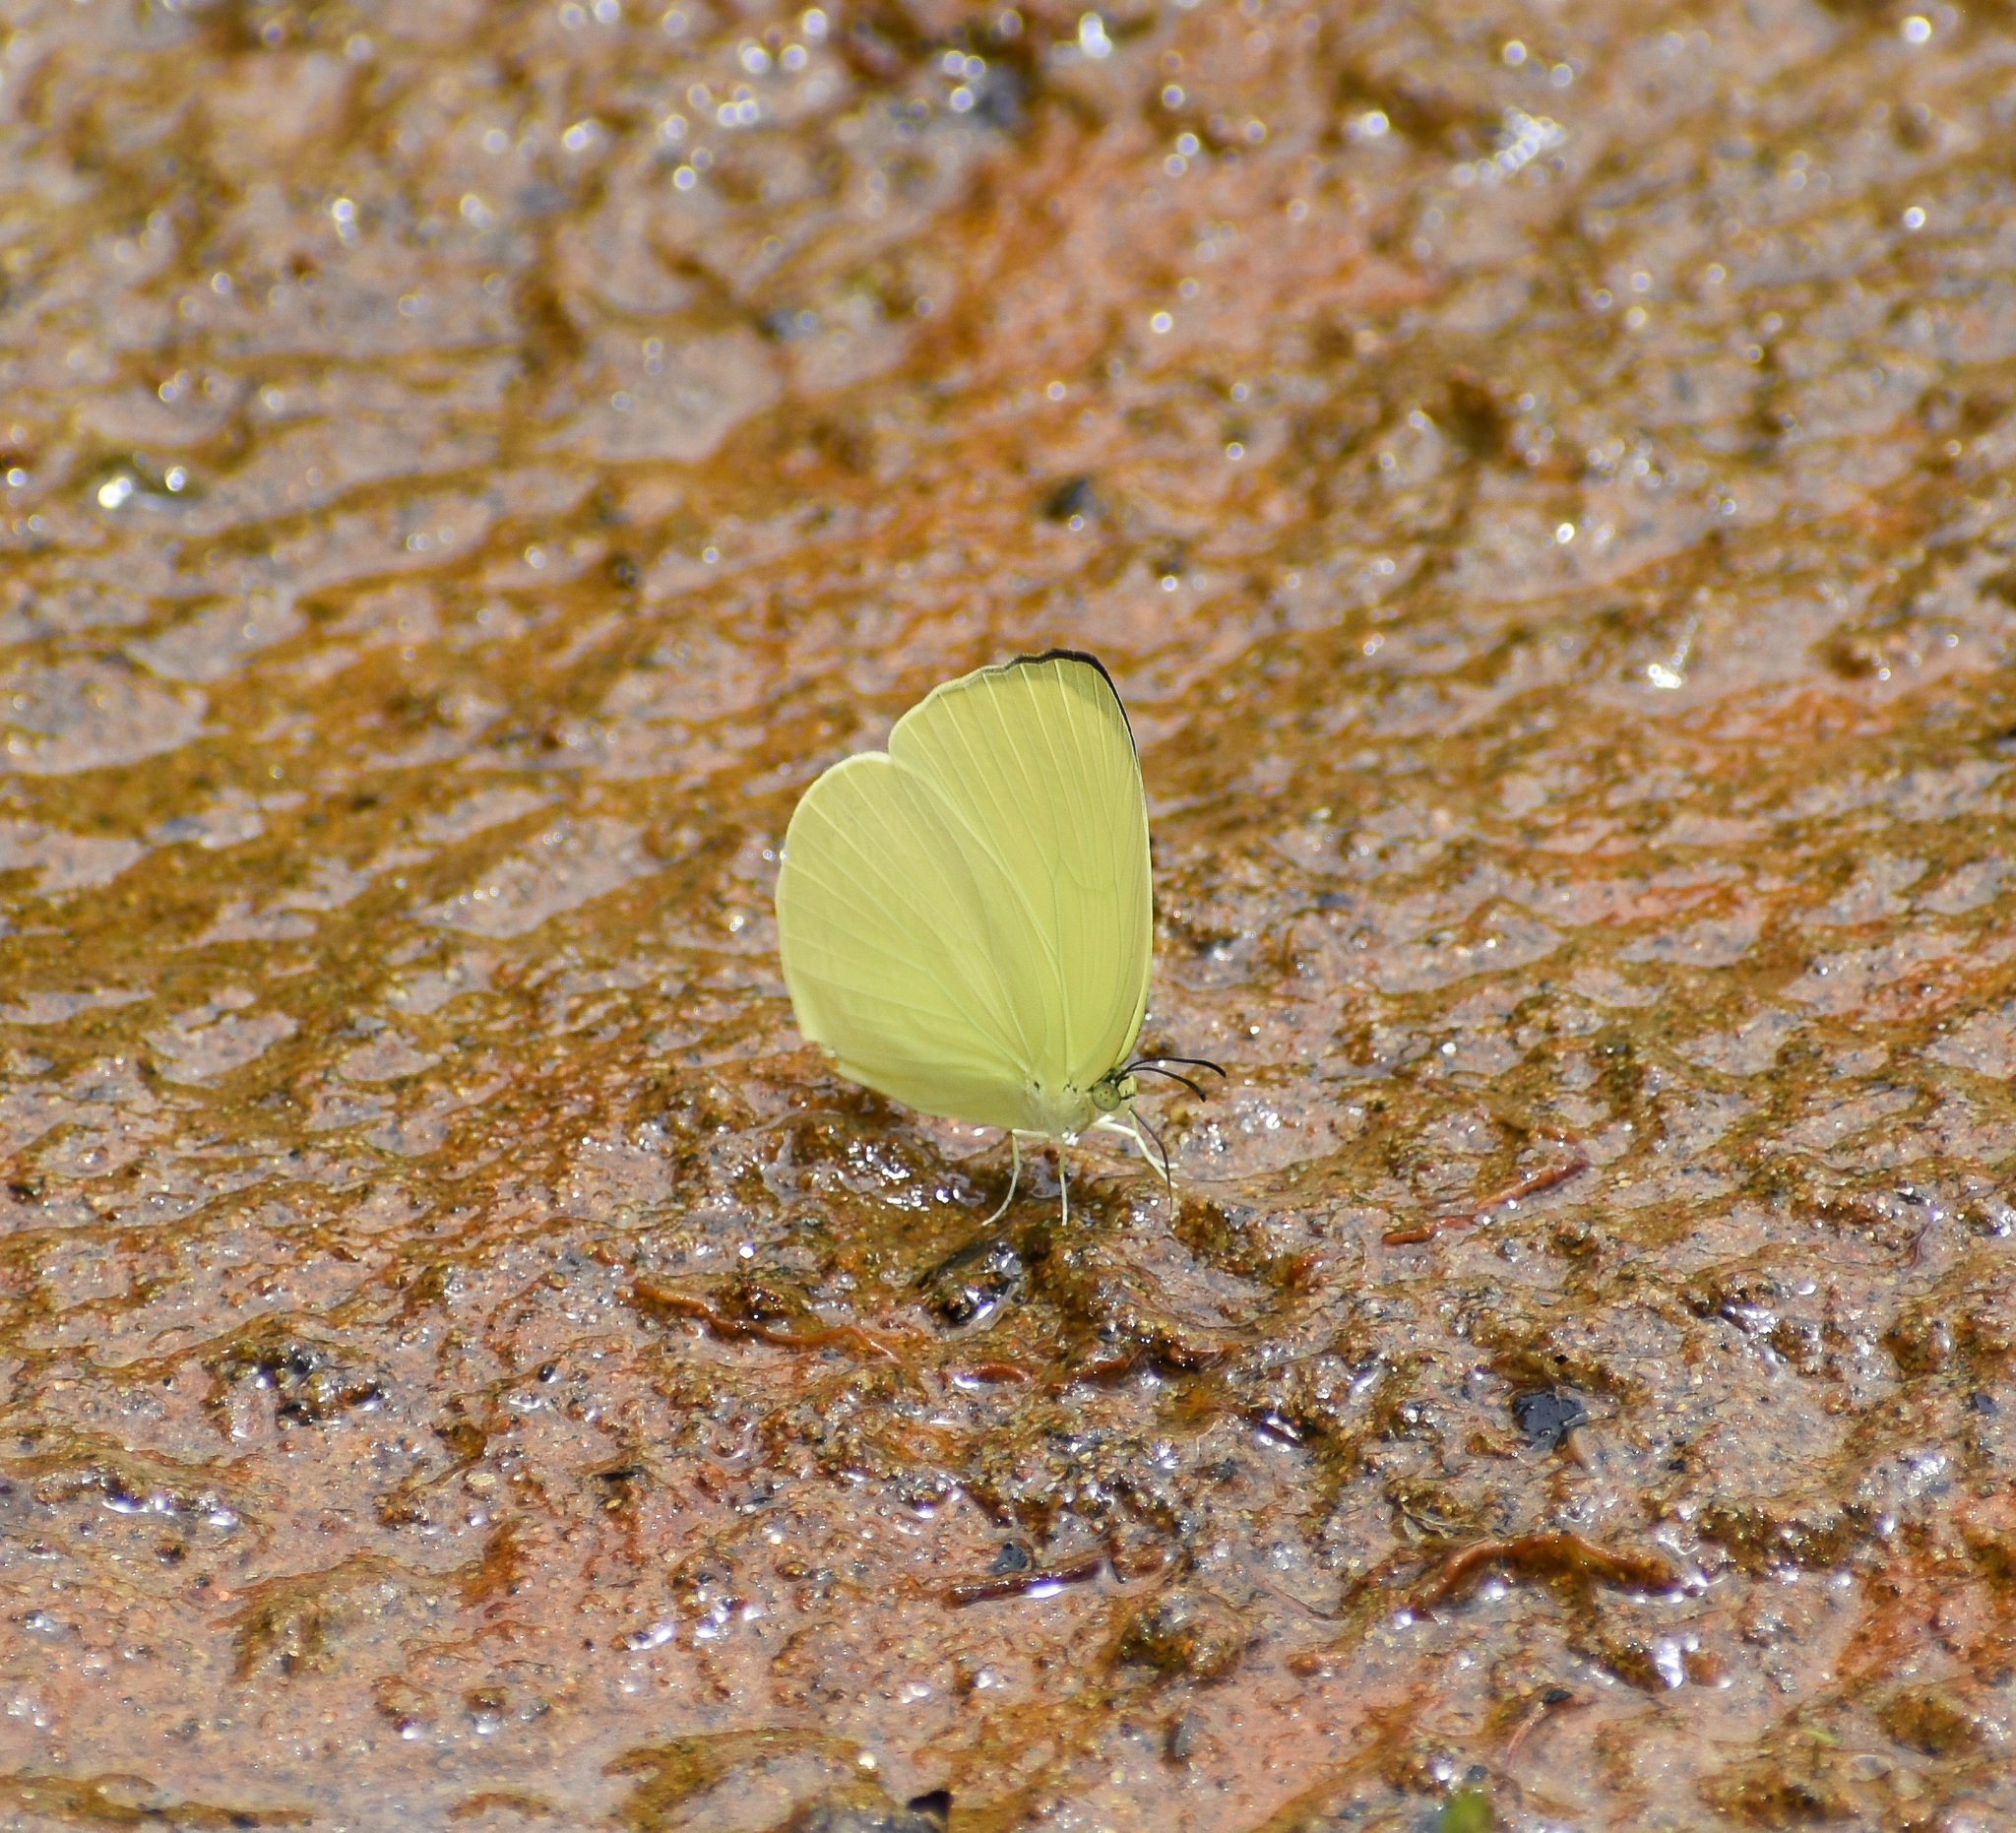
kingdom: Animalia
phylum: Arthropoda
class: Insecta
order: Lepidoptera
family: Pieridae
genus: Gandaca
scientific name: Gandaca harina
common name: Tree yellow
